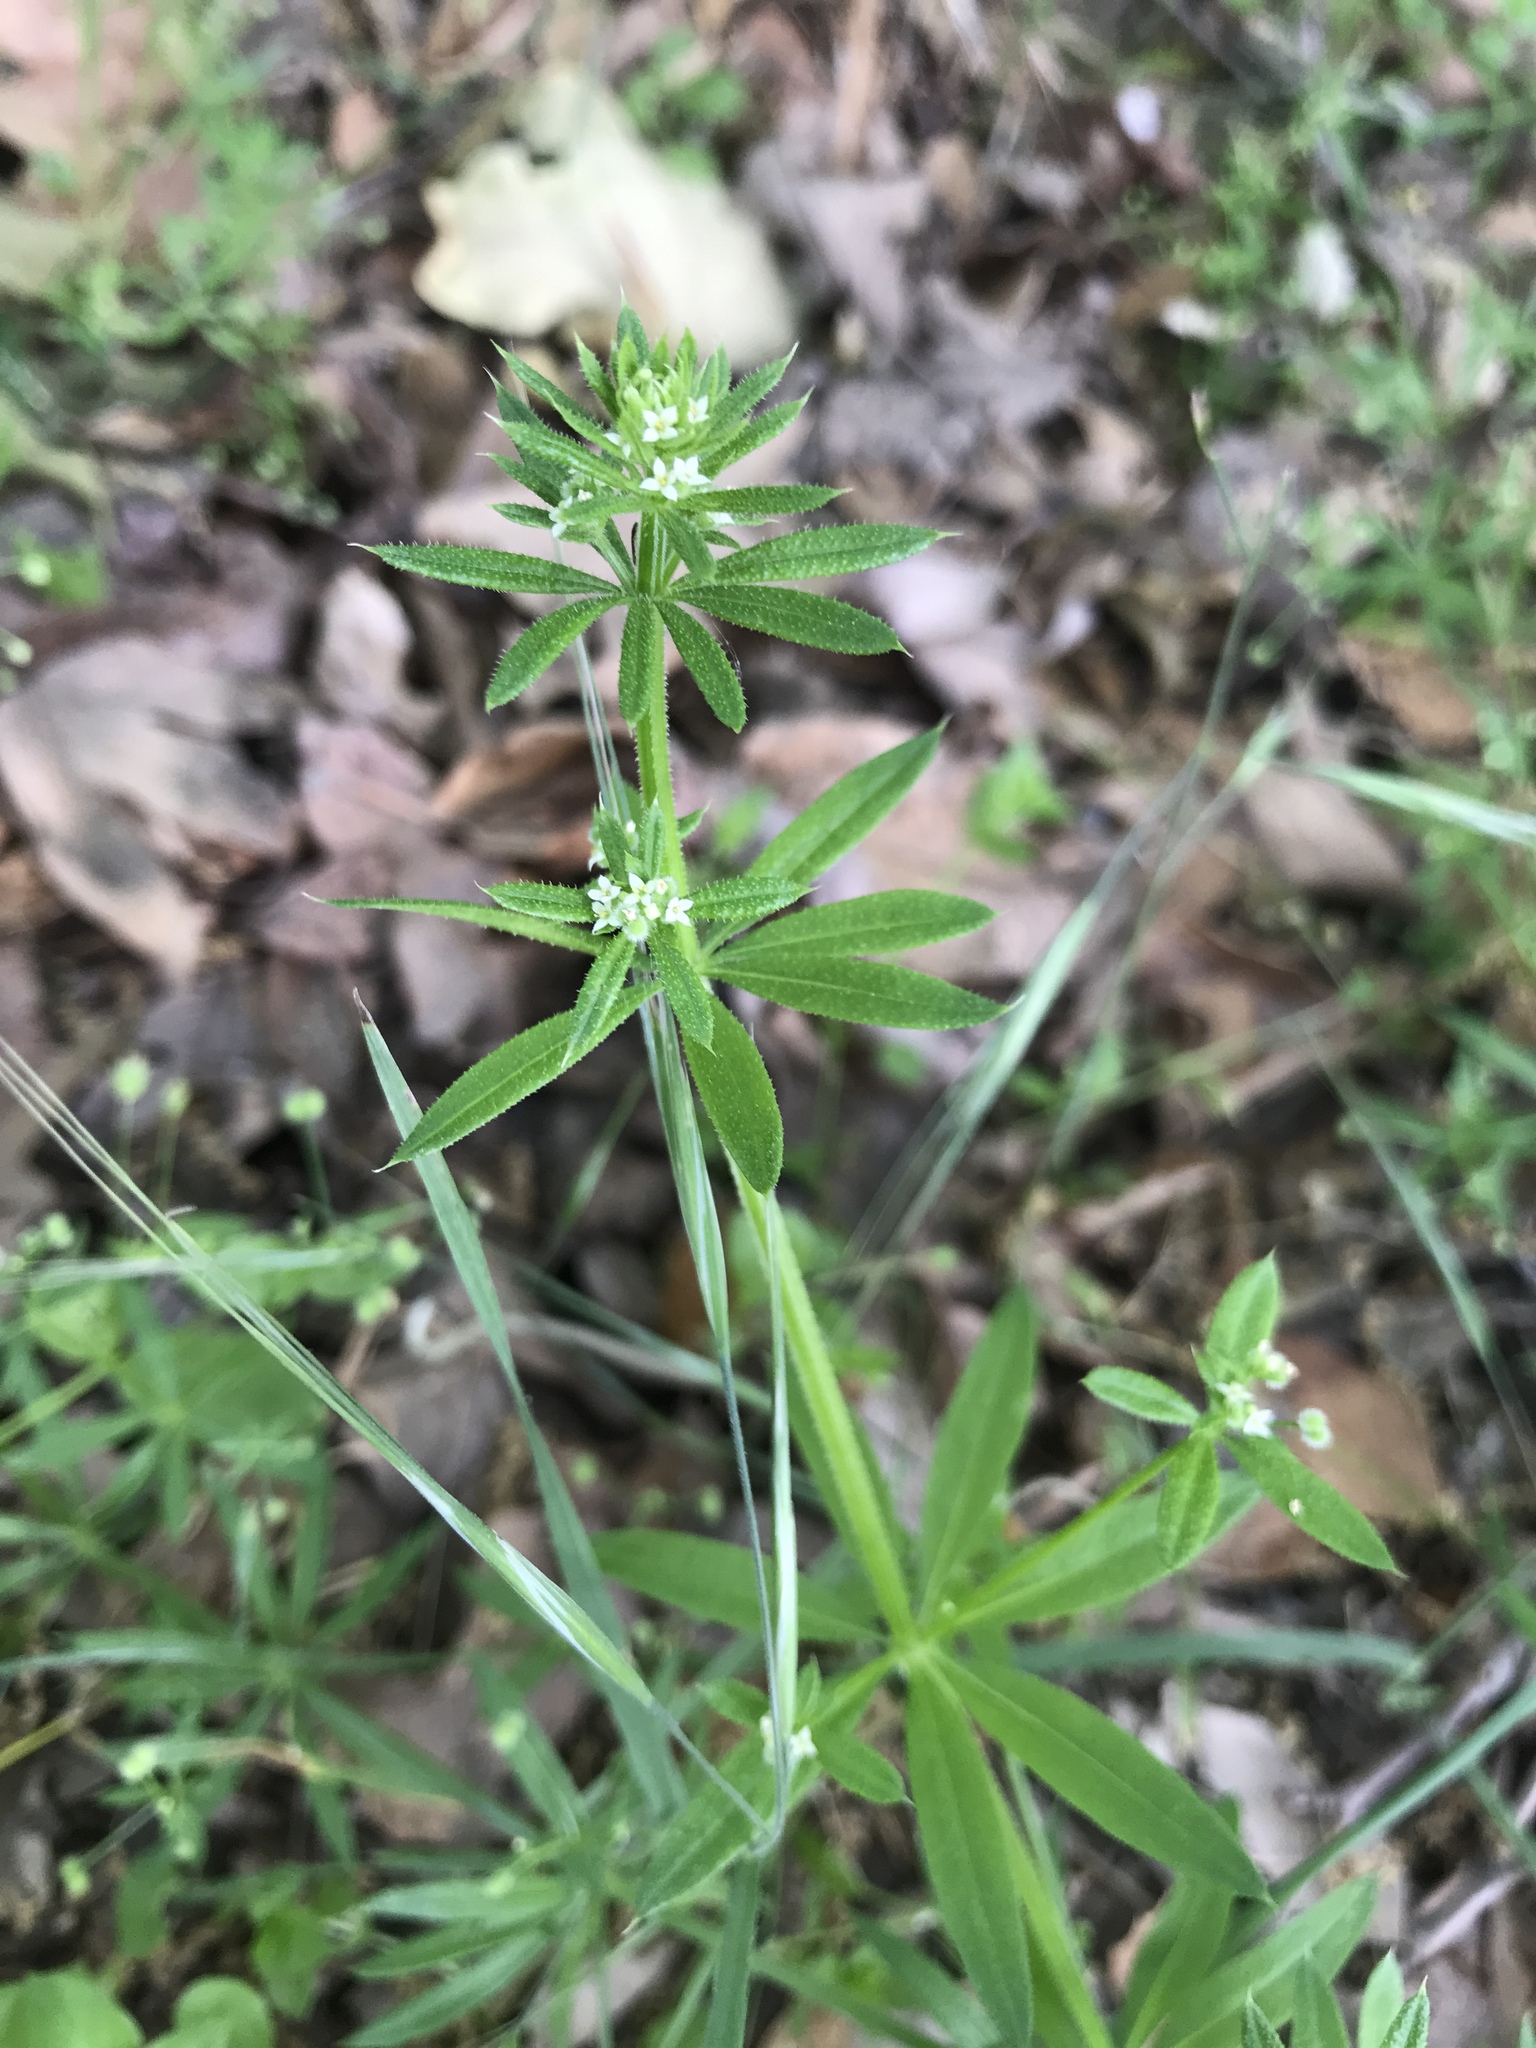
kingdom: Plantae
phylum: Tracheophyta
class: Magnoliopsida
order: Gentianales
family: Rubiaceae
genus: Galium
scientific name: Galium aparine
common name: Cleavers
